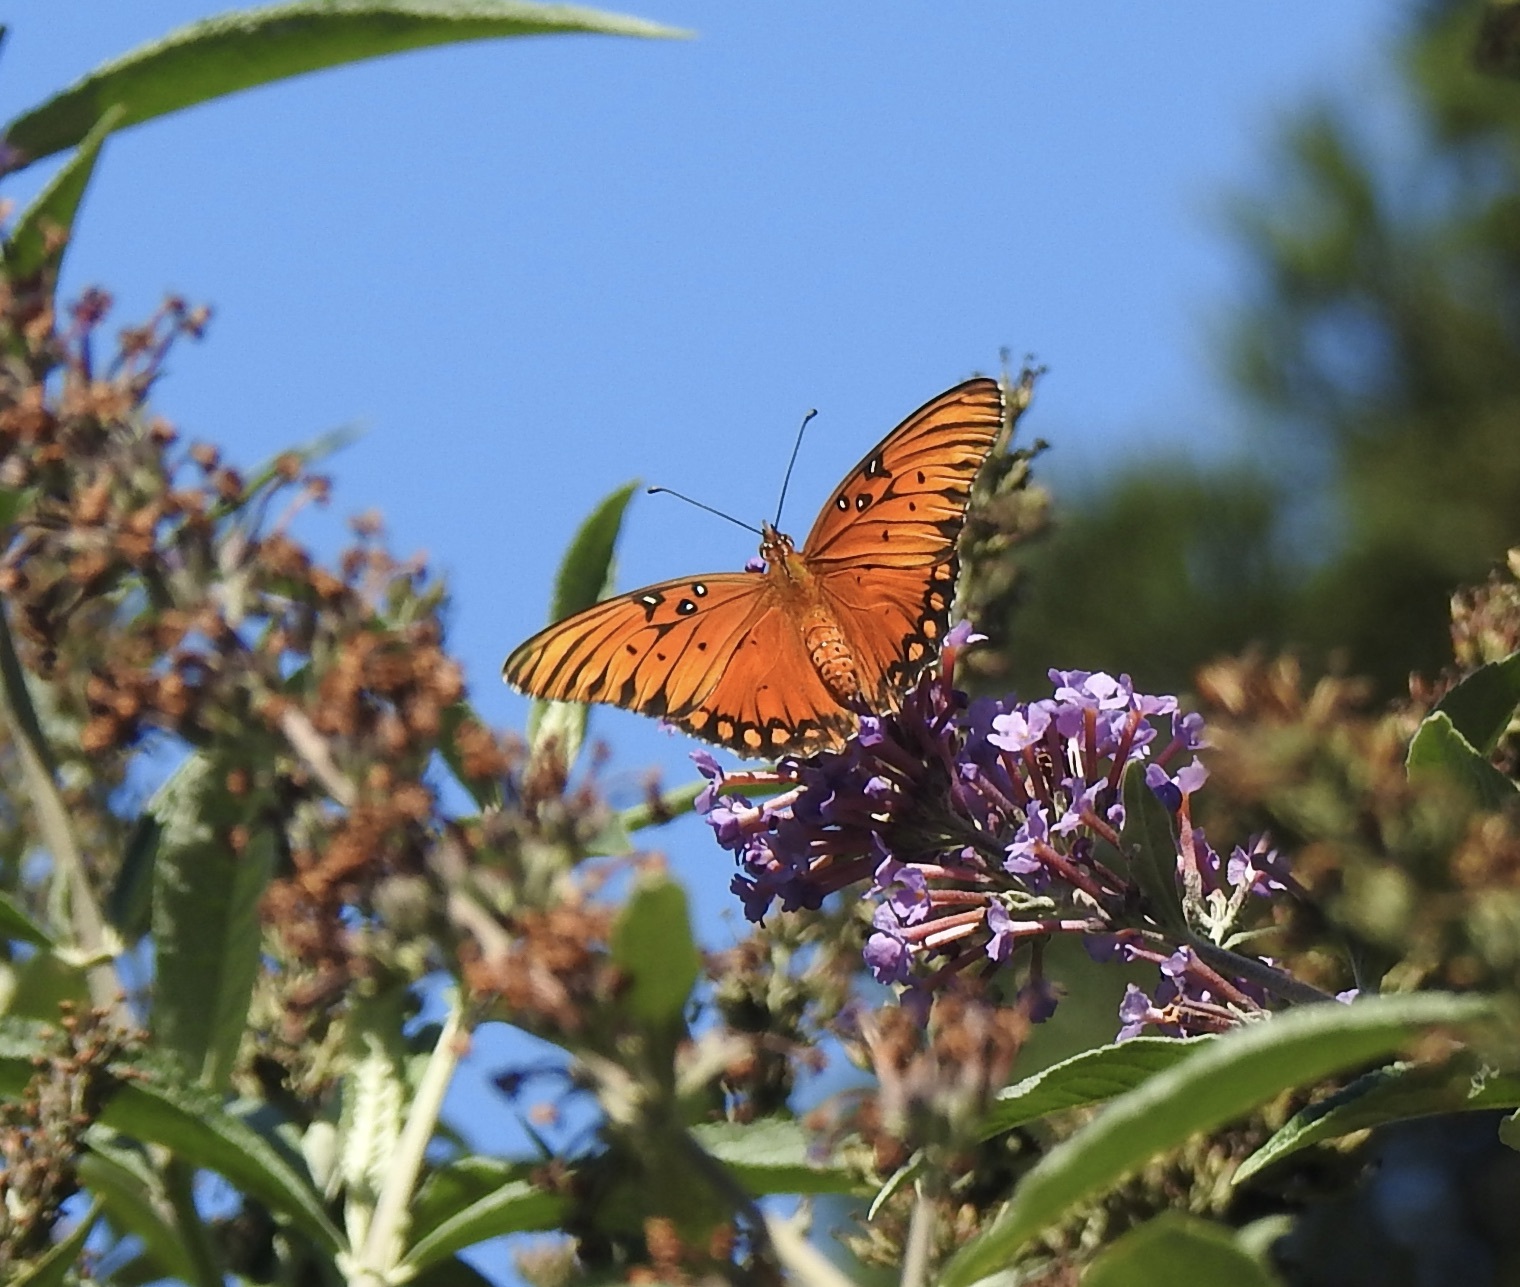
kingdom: Animalia
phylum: Arthropoda
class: Insecta
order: Lepidoptera
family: Nymphalidae
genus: Dione
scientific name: Dione vanillae
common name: Gulf fritillary
